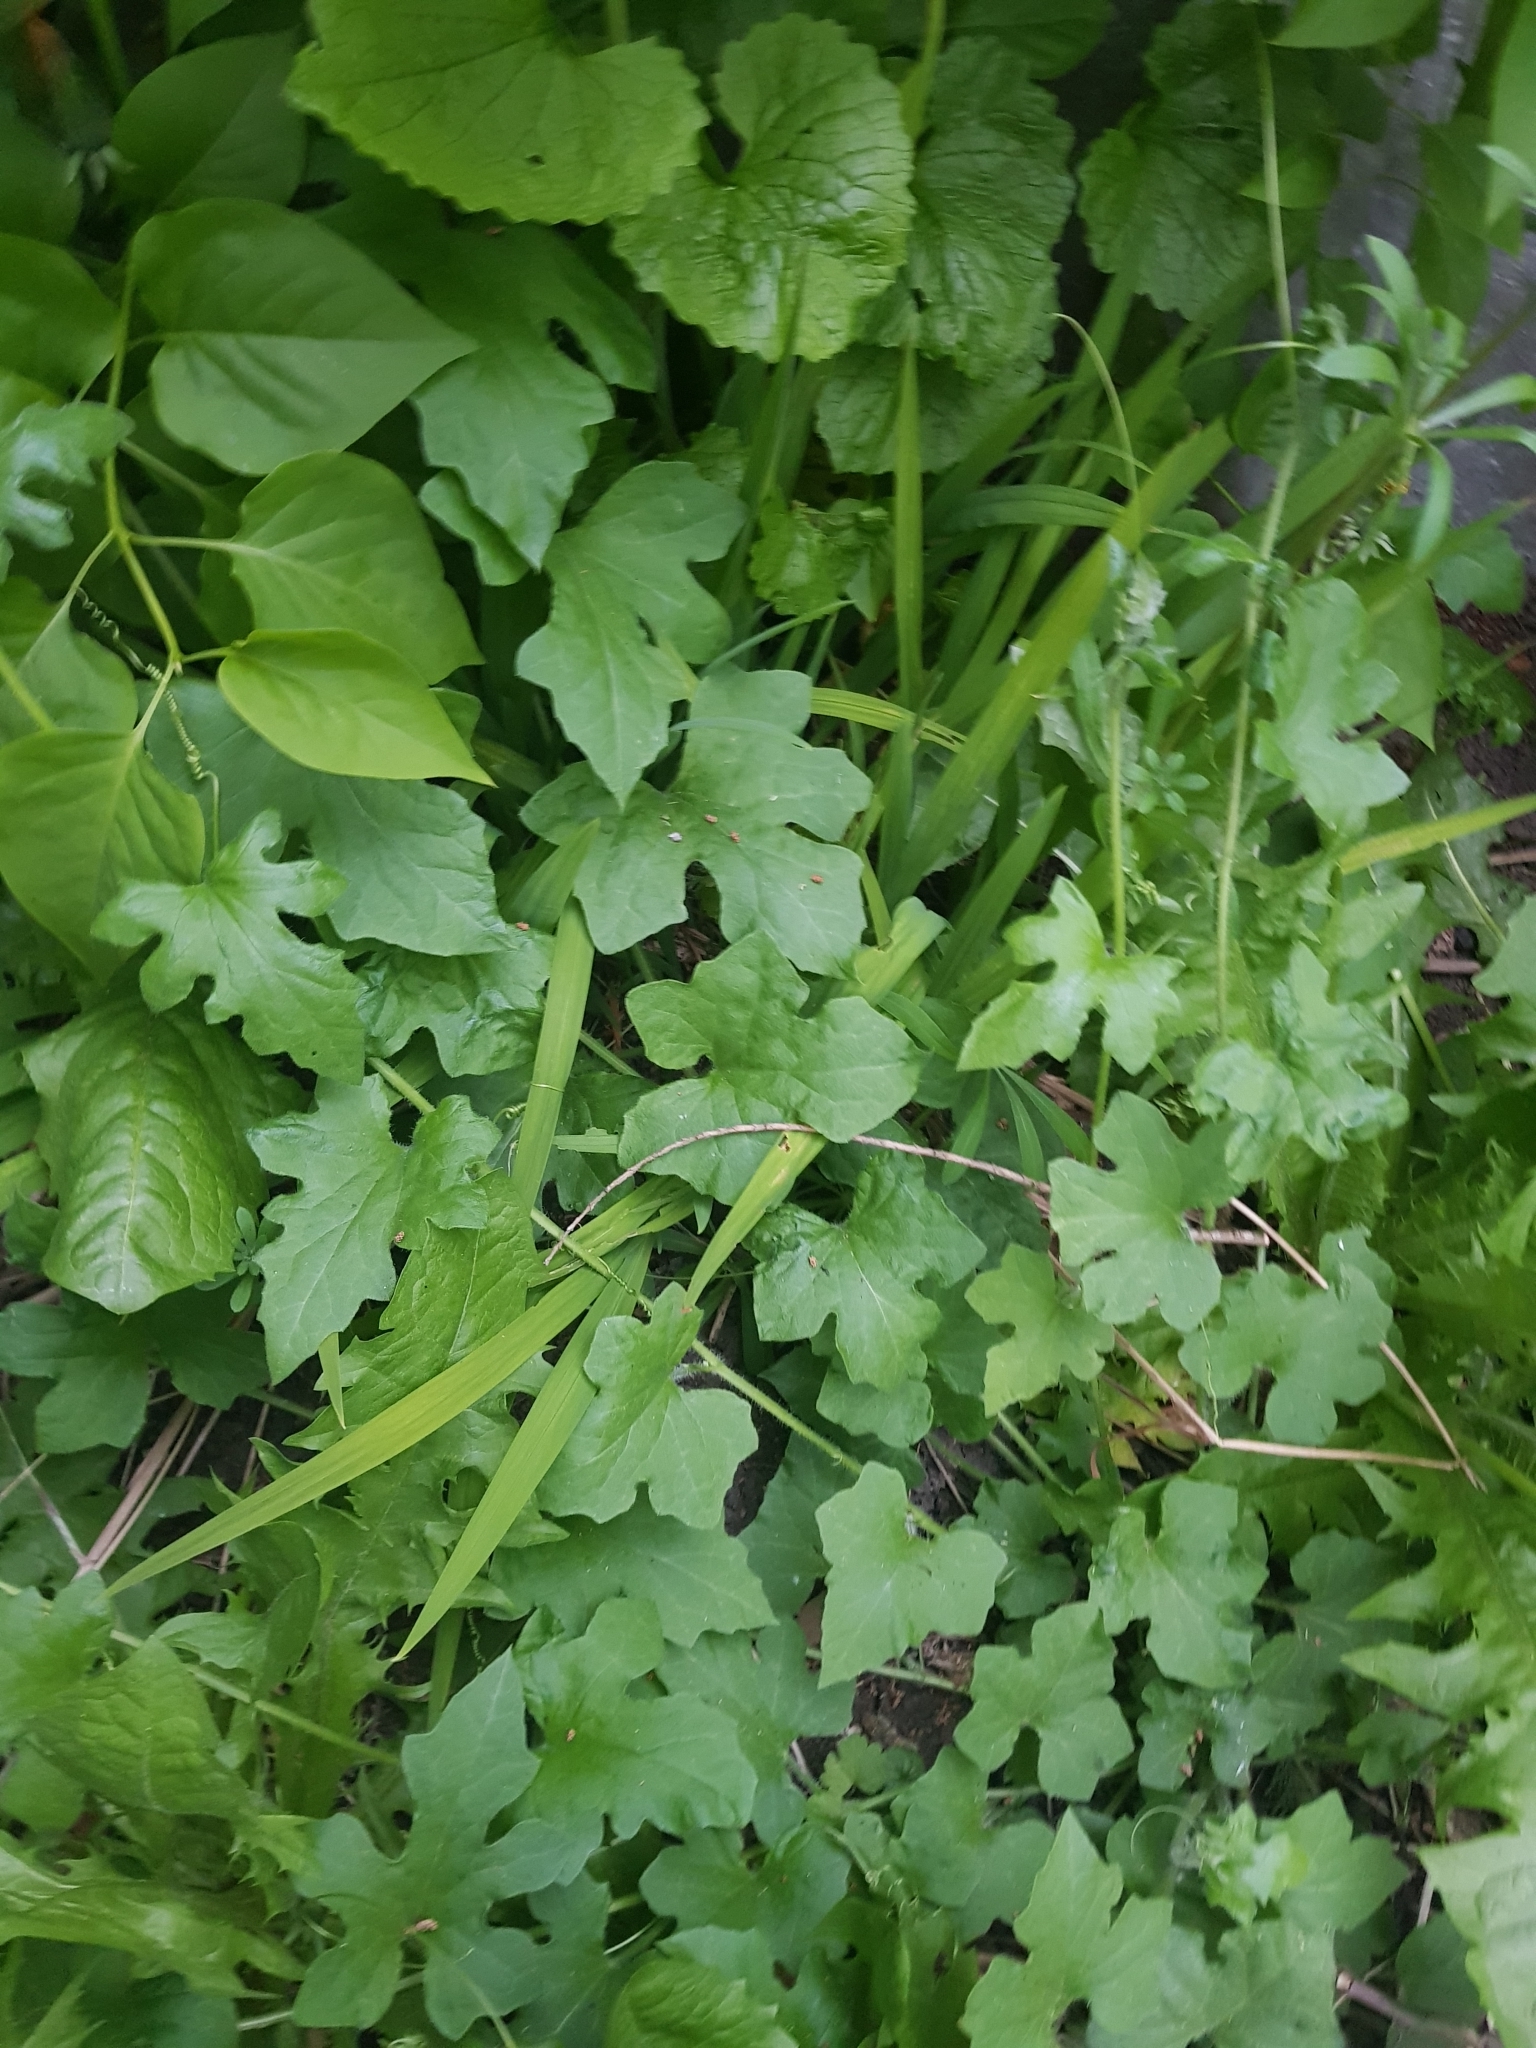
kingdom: Plantae
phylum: Tracheophyta
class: Magnoliopsida
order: Cucurbitales
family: Cucurbitaceae
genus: Bryonia
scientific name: Bryonia cretica
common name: Cretan bryony
